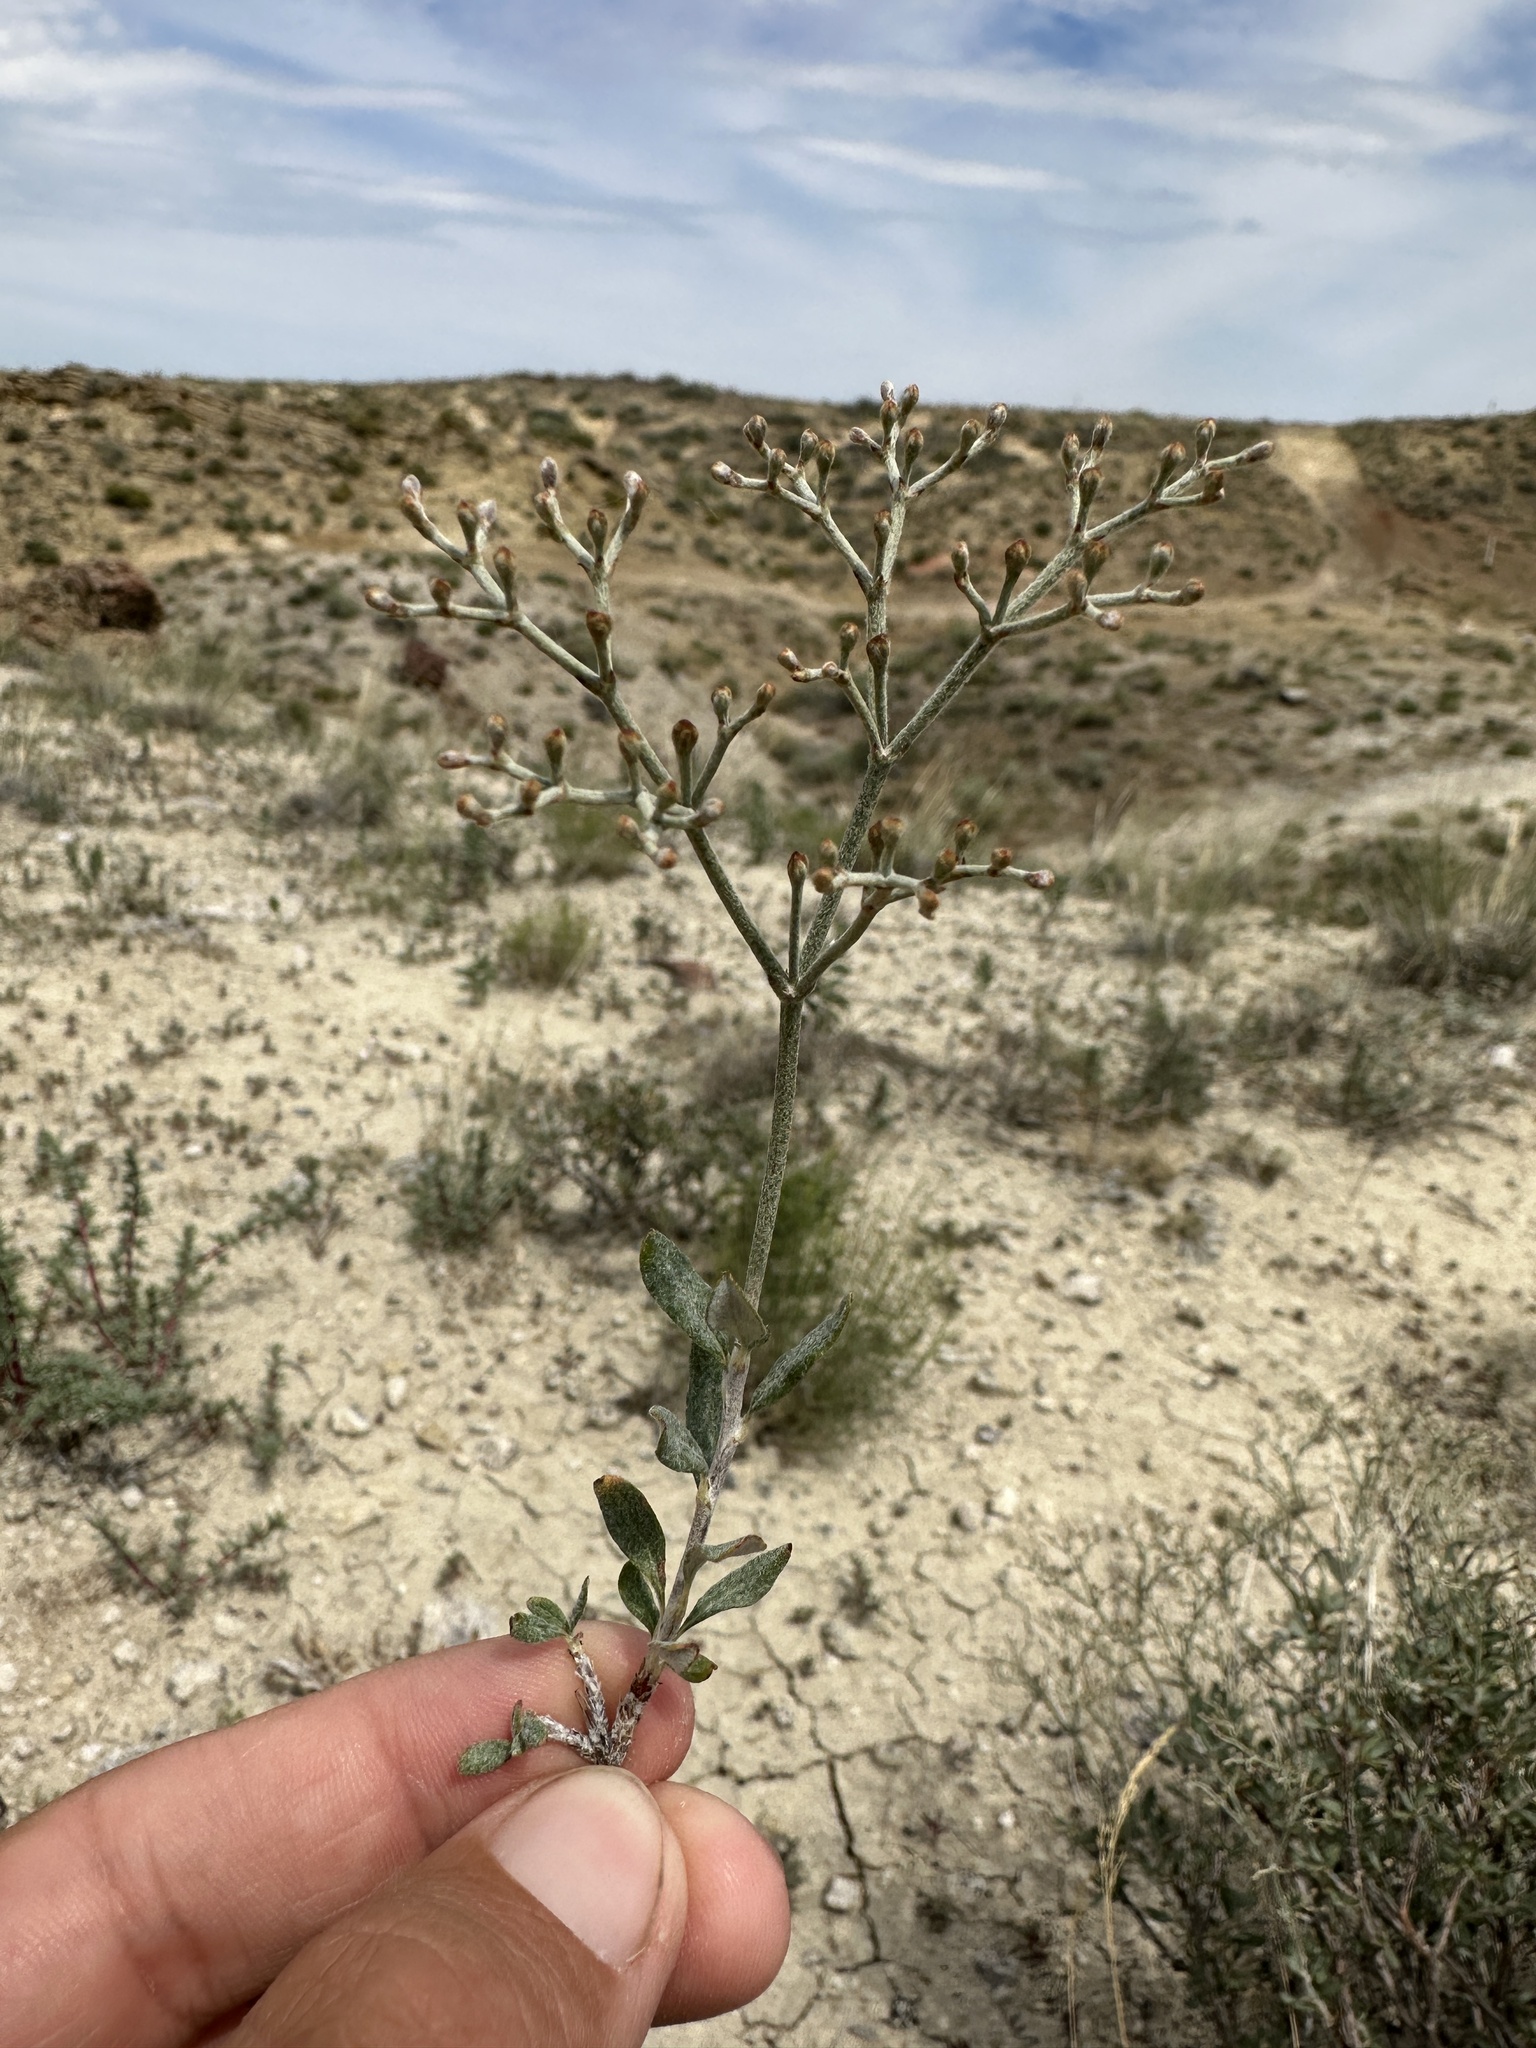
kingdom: Plantae
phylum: Tracheophyta
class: Magnoliopsida
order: Caryophyllales
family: Polygonaceae
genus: Eriogonum
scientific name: Eriogonum microtheca
